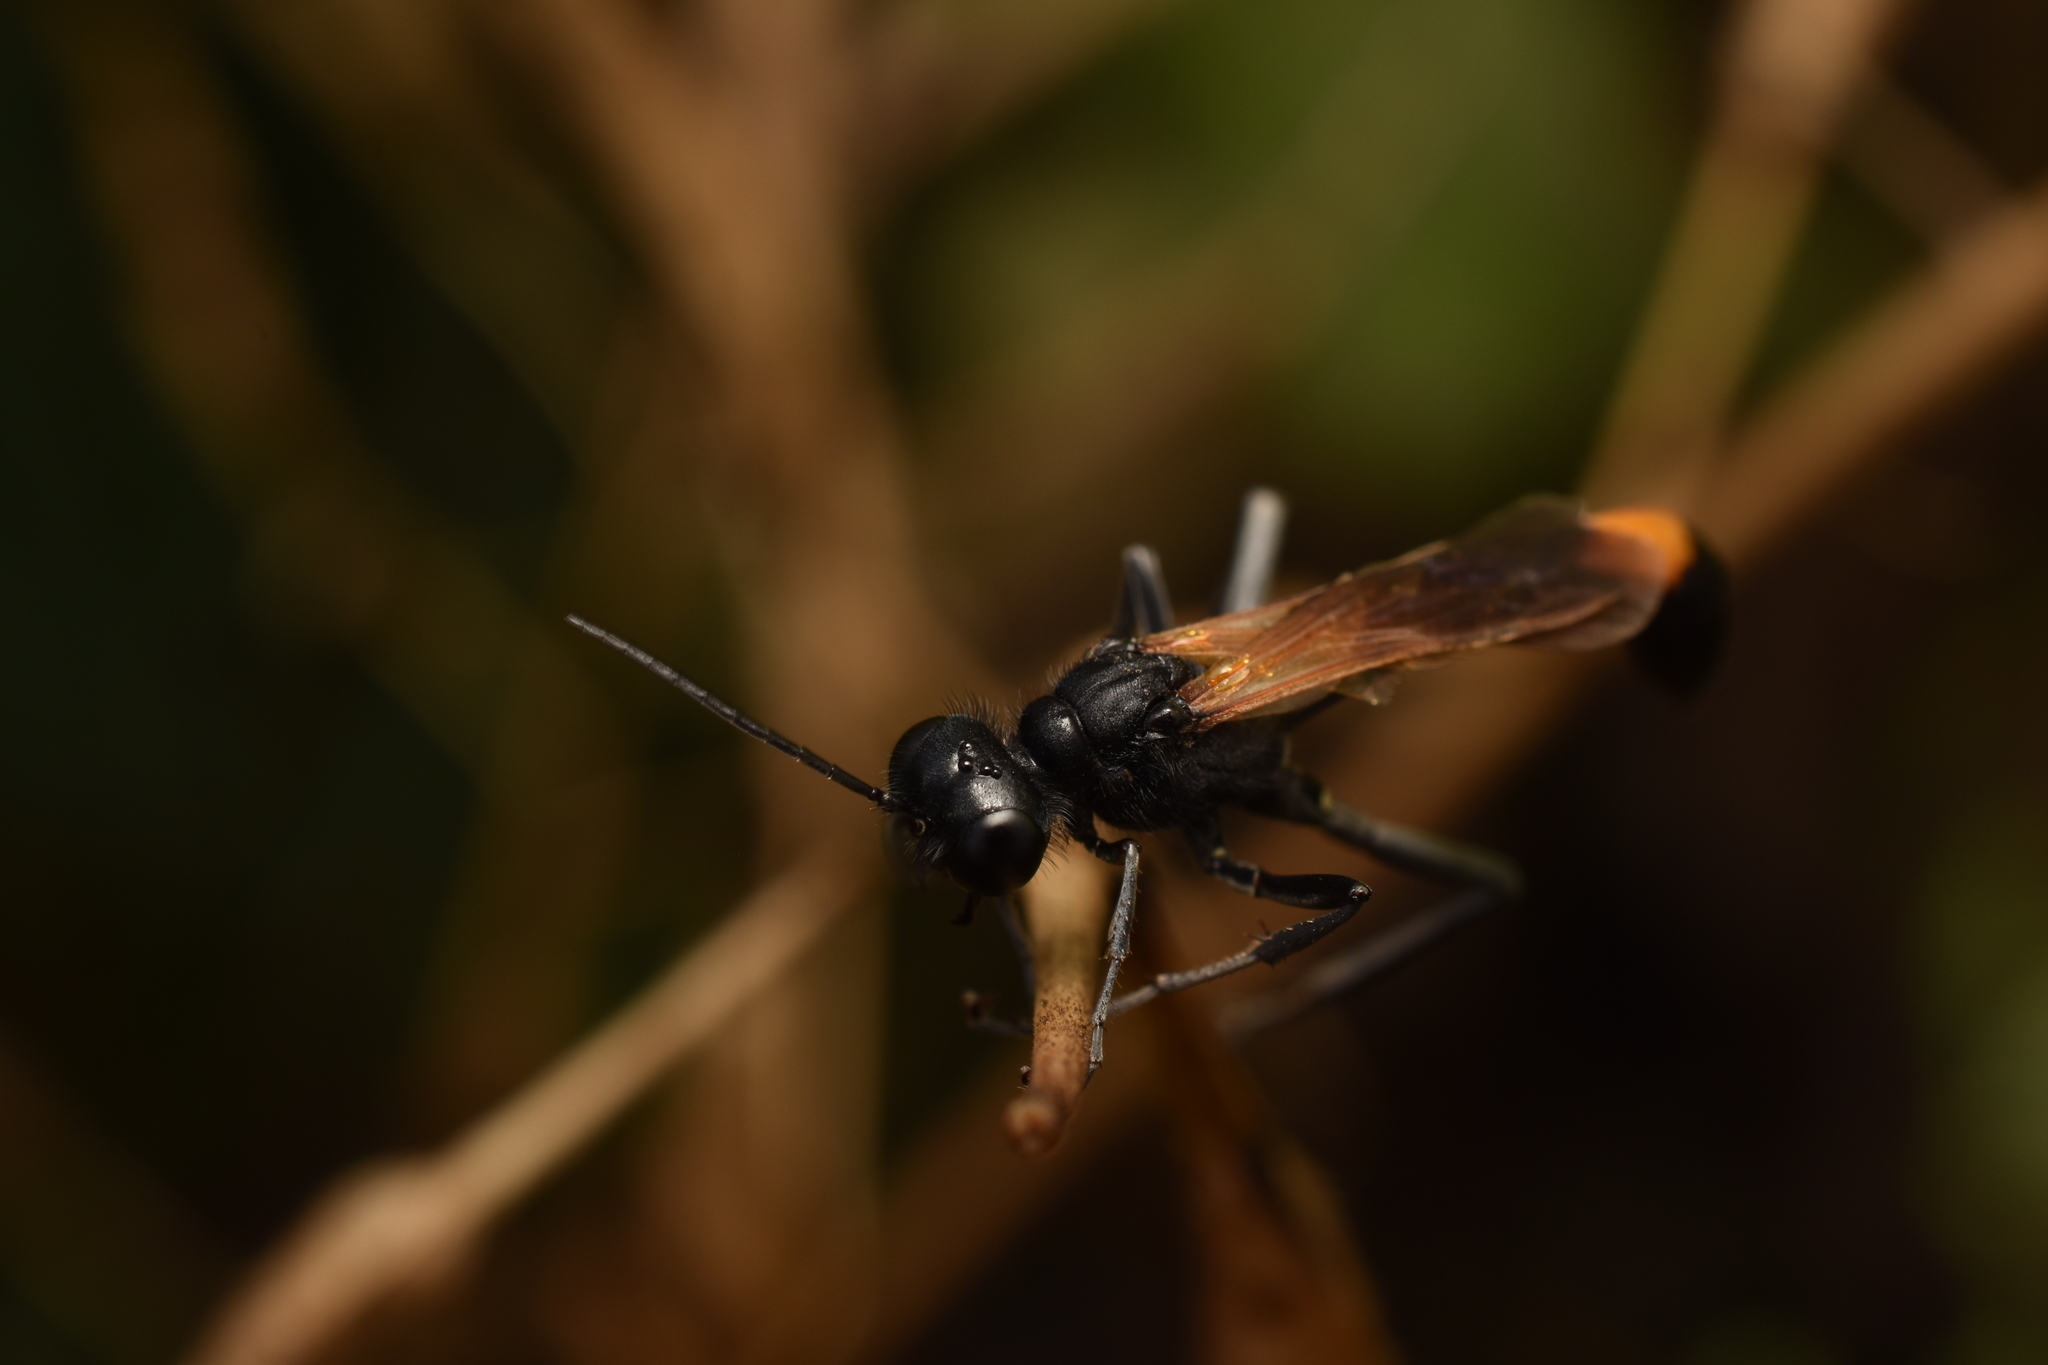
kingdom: Animalia
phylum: Arthropoda
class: Insecta
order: Hymenoptera
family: Sphecidae
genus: Ammophila
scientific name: Ammophila pictipennis
